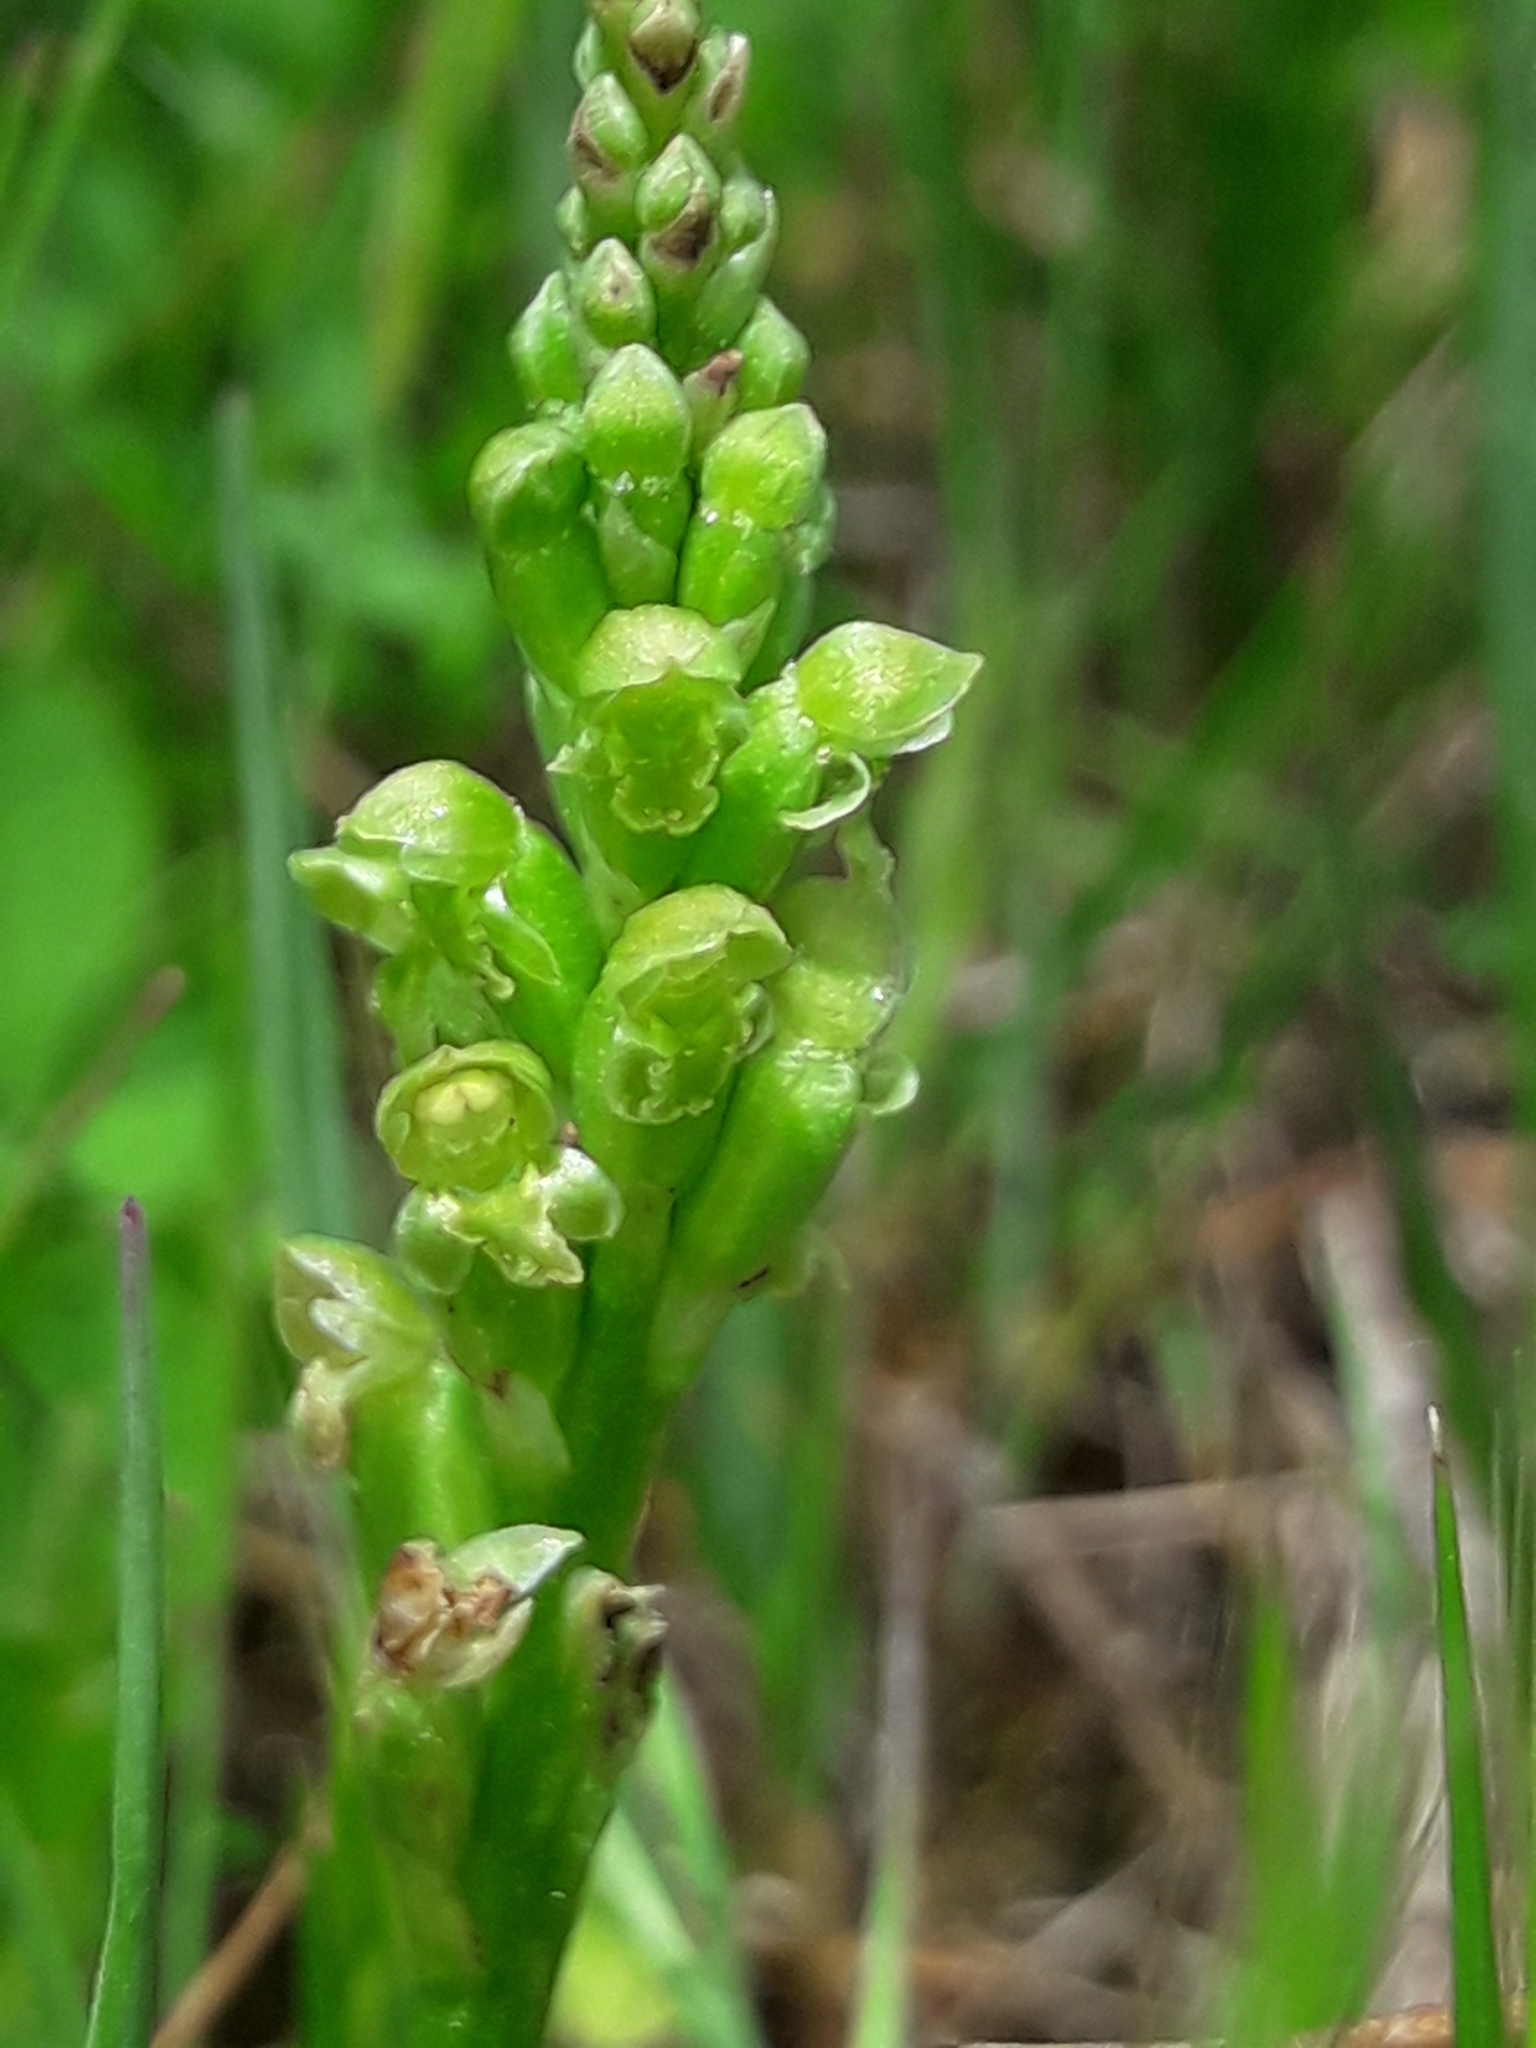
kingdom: Plantae
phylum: Tracheophyta
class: Liliopsida
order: Asparagales
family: Orchidaceae
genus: Microtis
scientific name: Microtis unifolia
